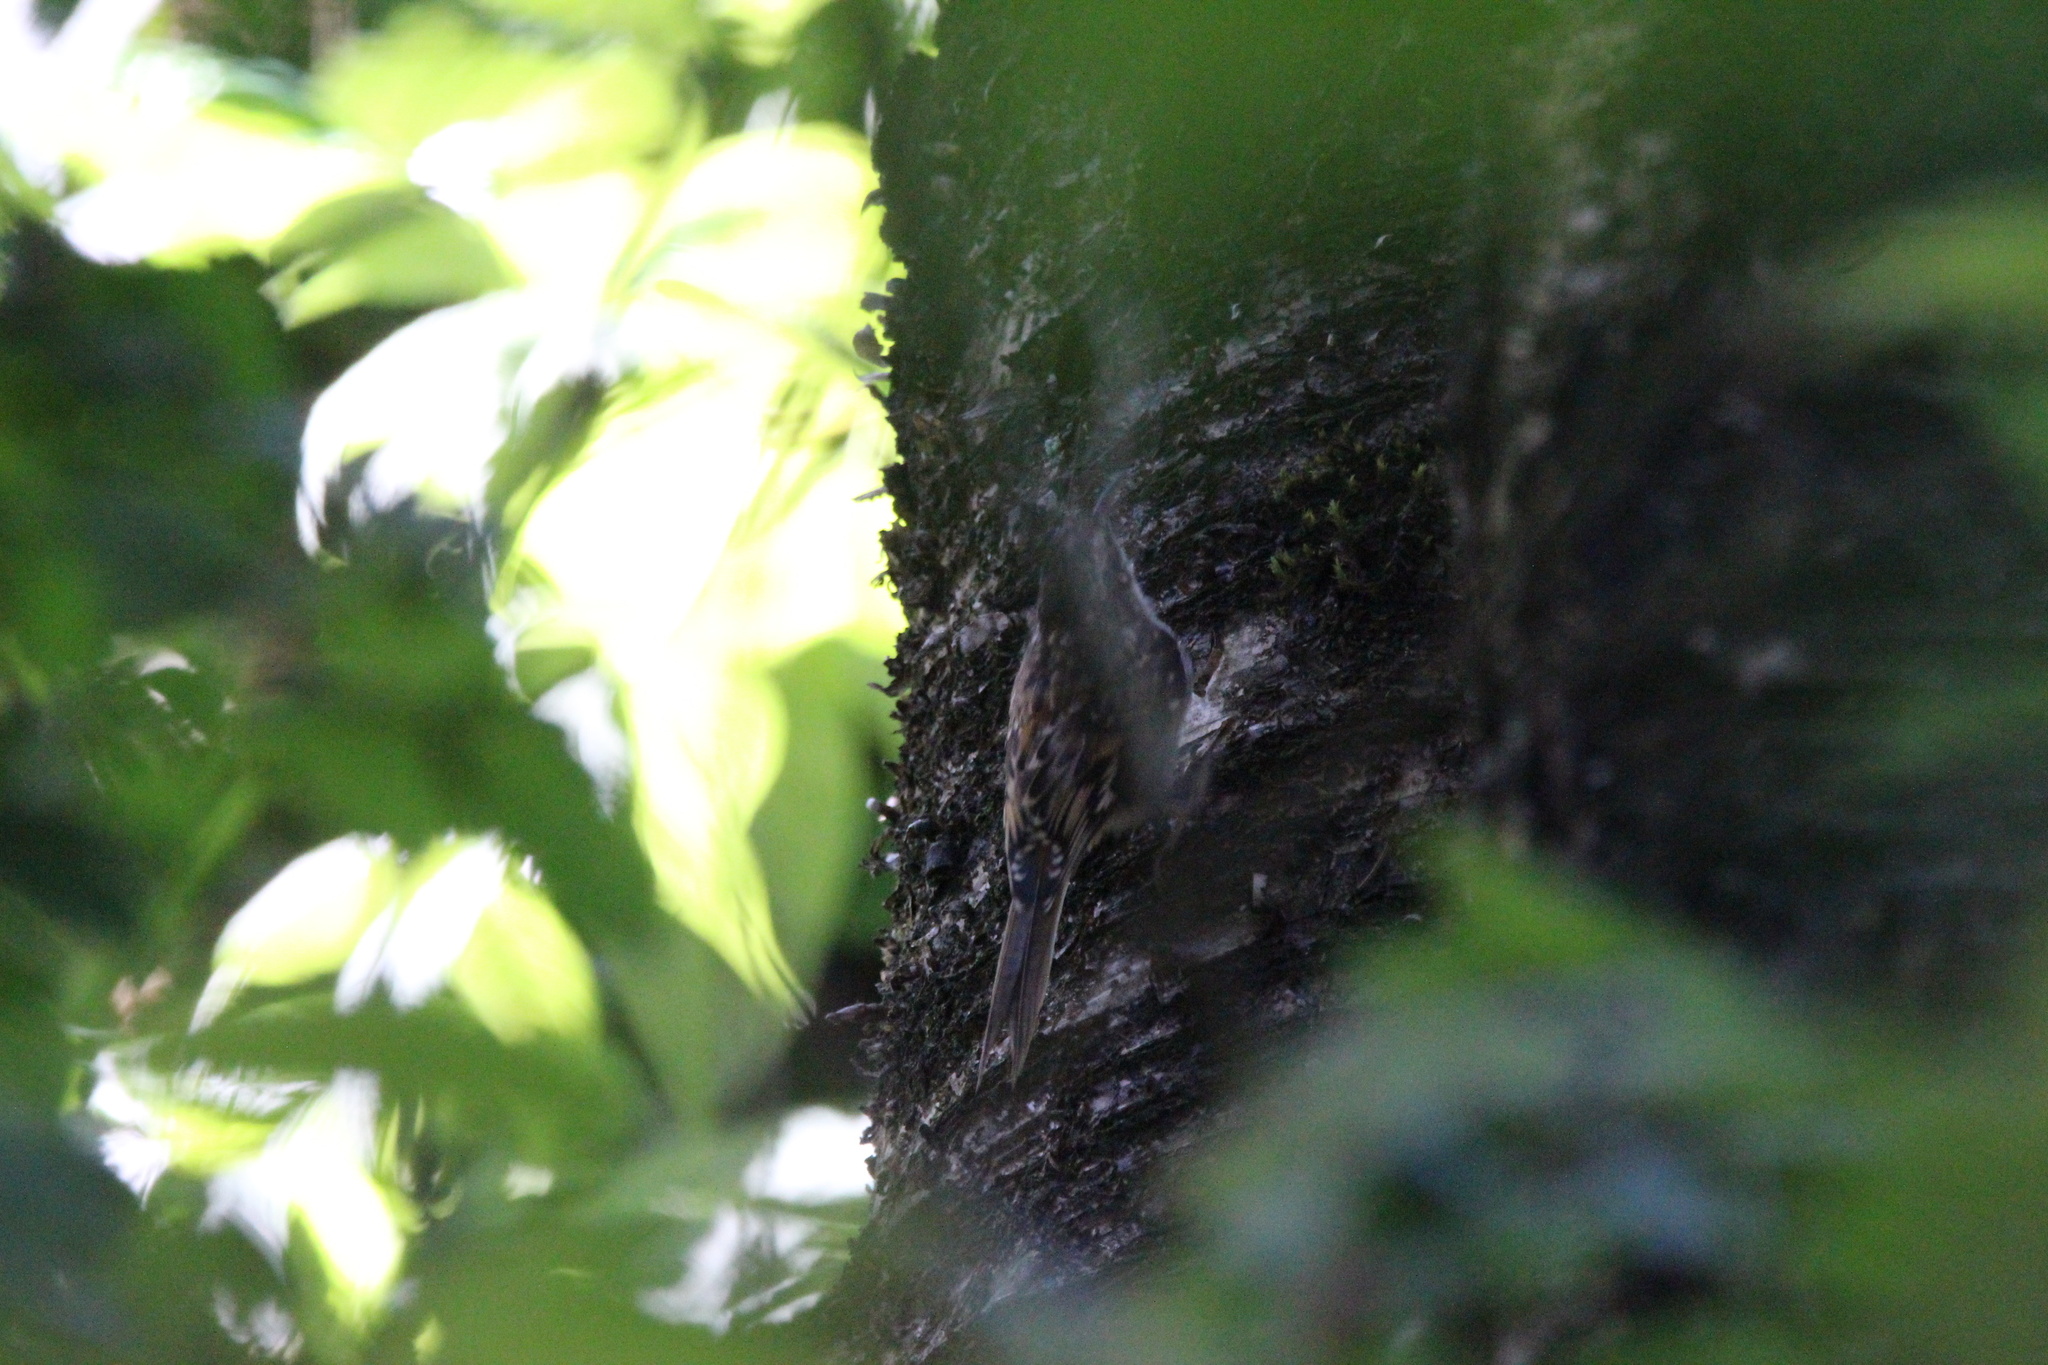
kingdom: Animalia
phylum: Chordata
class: Aves
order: Passeriformes
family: Certhiidae
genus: Certhia
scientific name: Certhia americana
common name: Brown creeper
